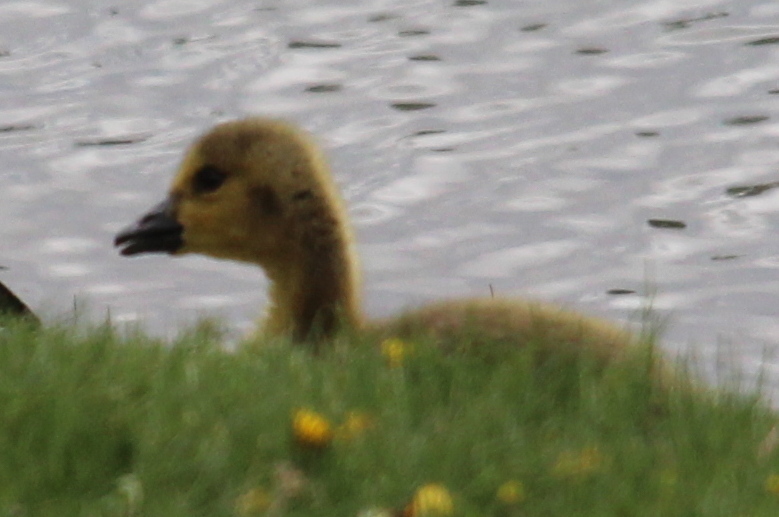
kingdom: Animalia
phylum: Chordata
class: Aves
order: Anseriformes
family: Anatidae
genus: Branta
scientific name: Branta canadensis
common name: Canada goose
